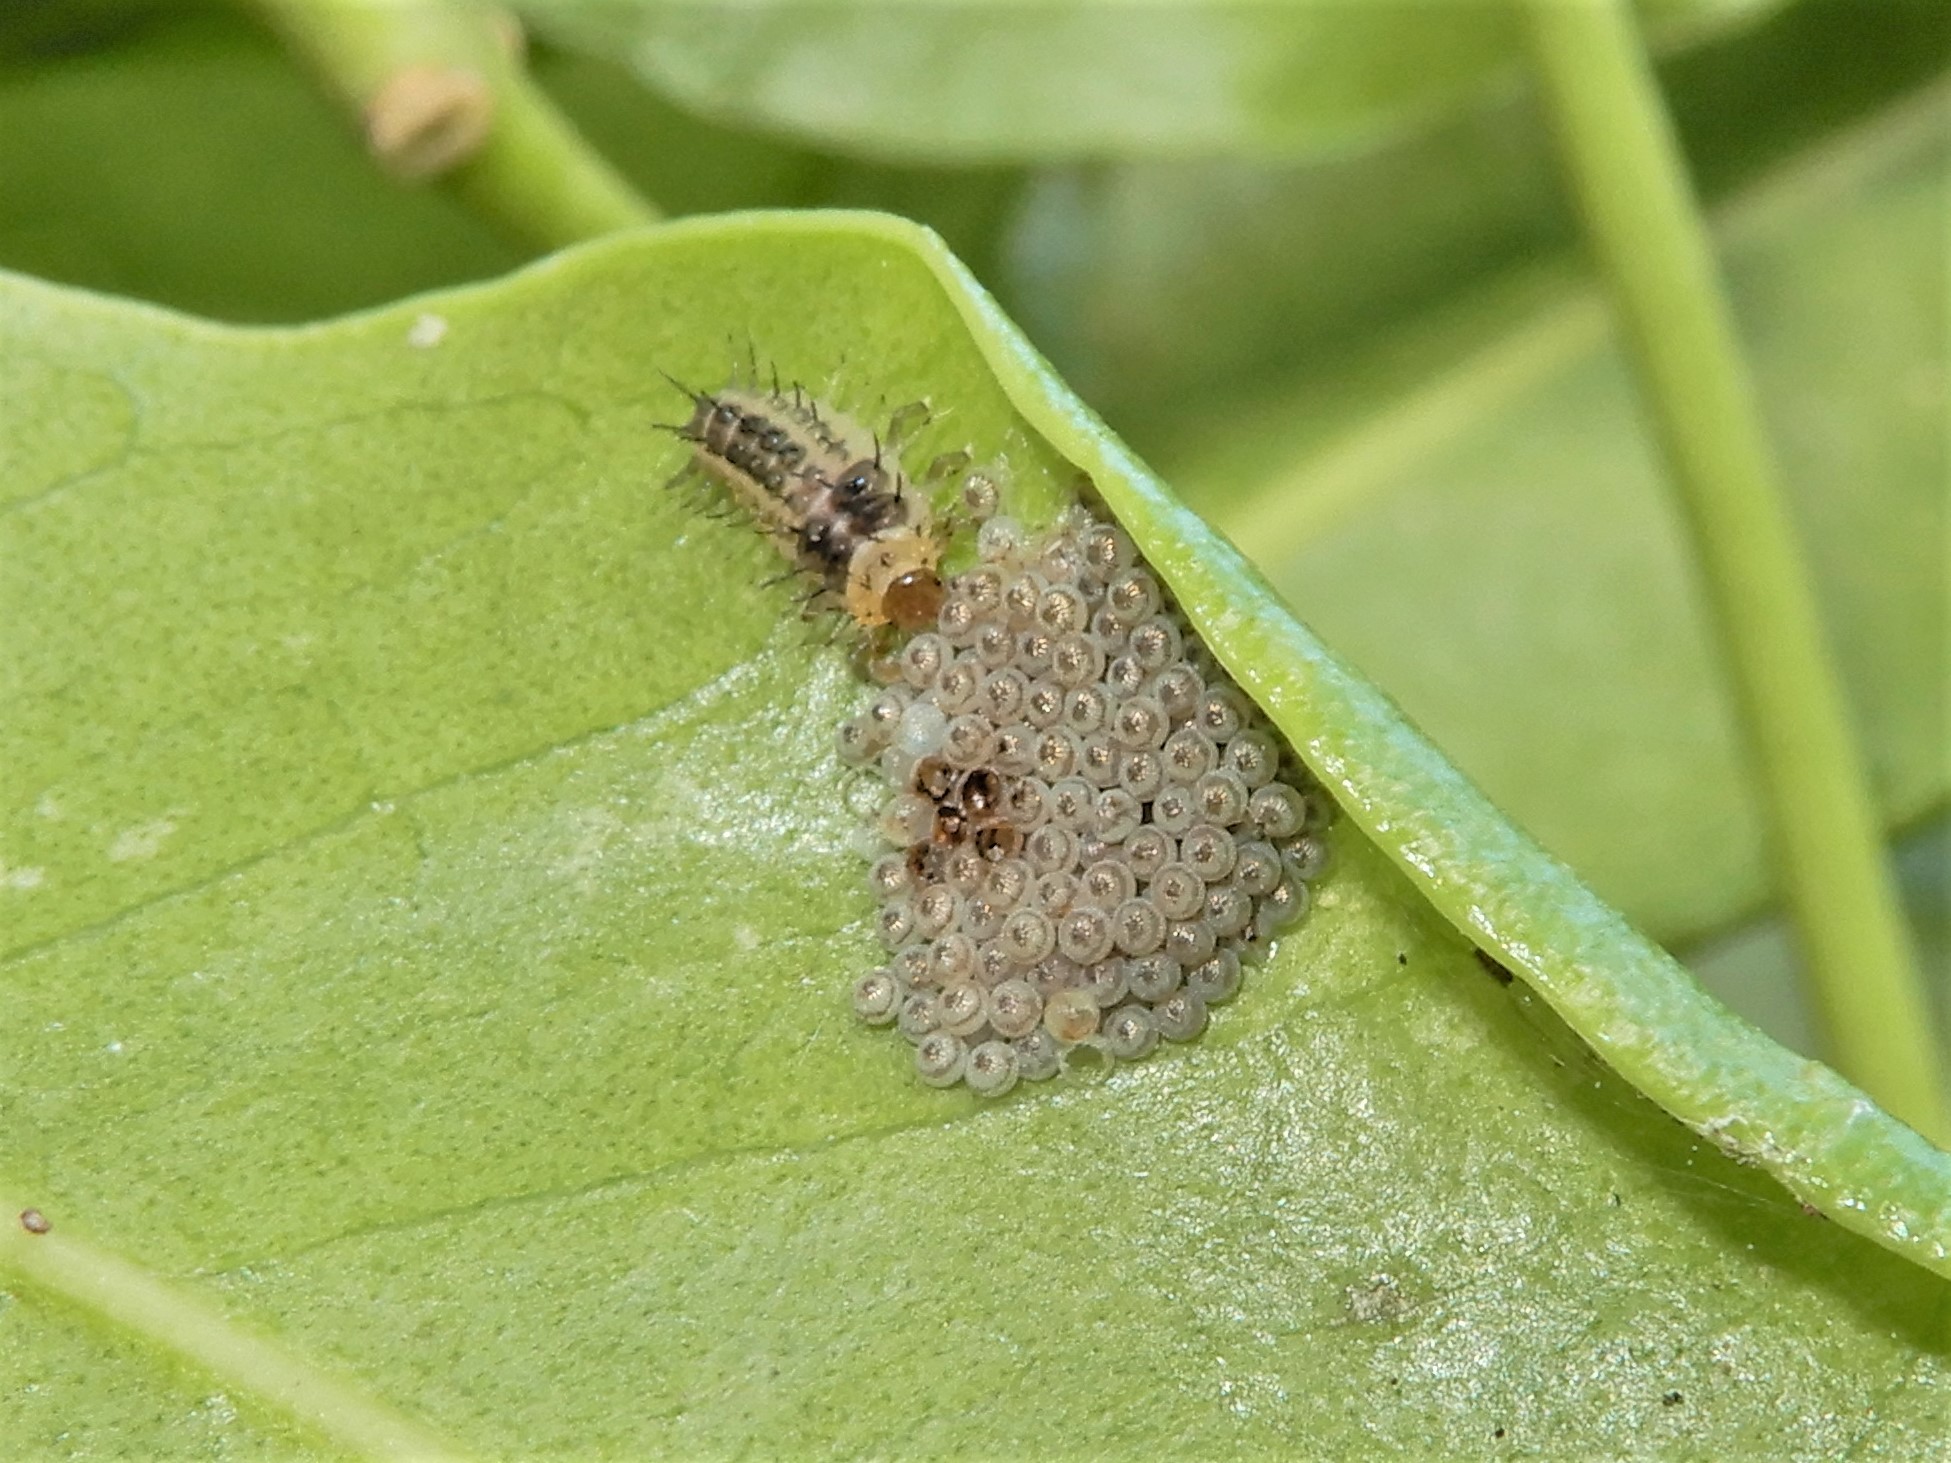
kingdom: Animalia
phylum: Arthropoda
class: Insecta
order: Coleoptera
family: Coccinellidae
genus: Halmus
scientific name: Halmus chalybeus
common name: Steel blue ladybird beetle
